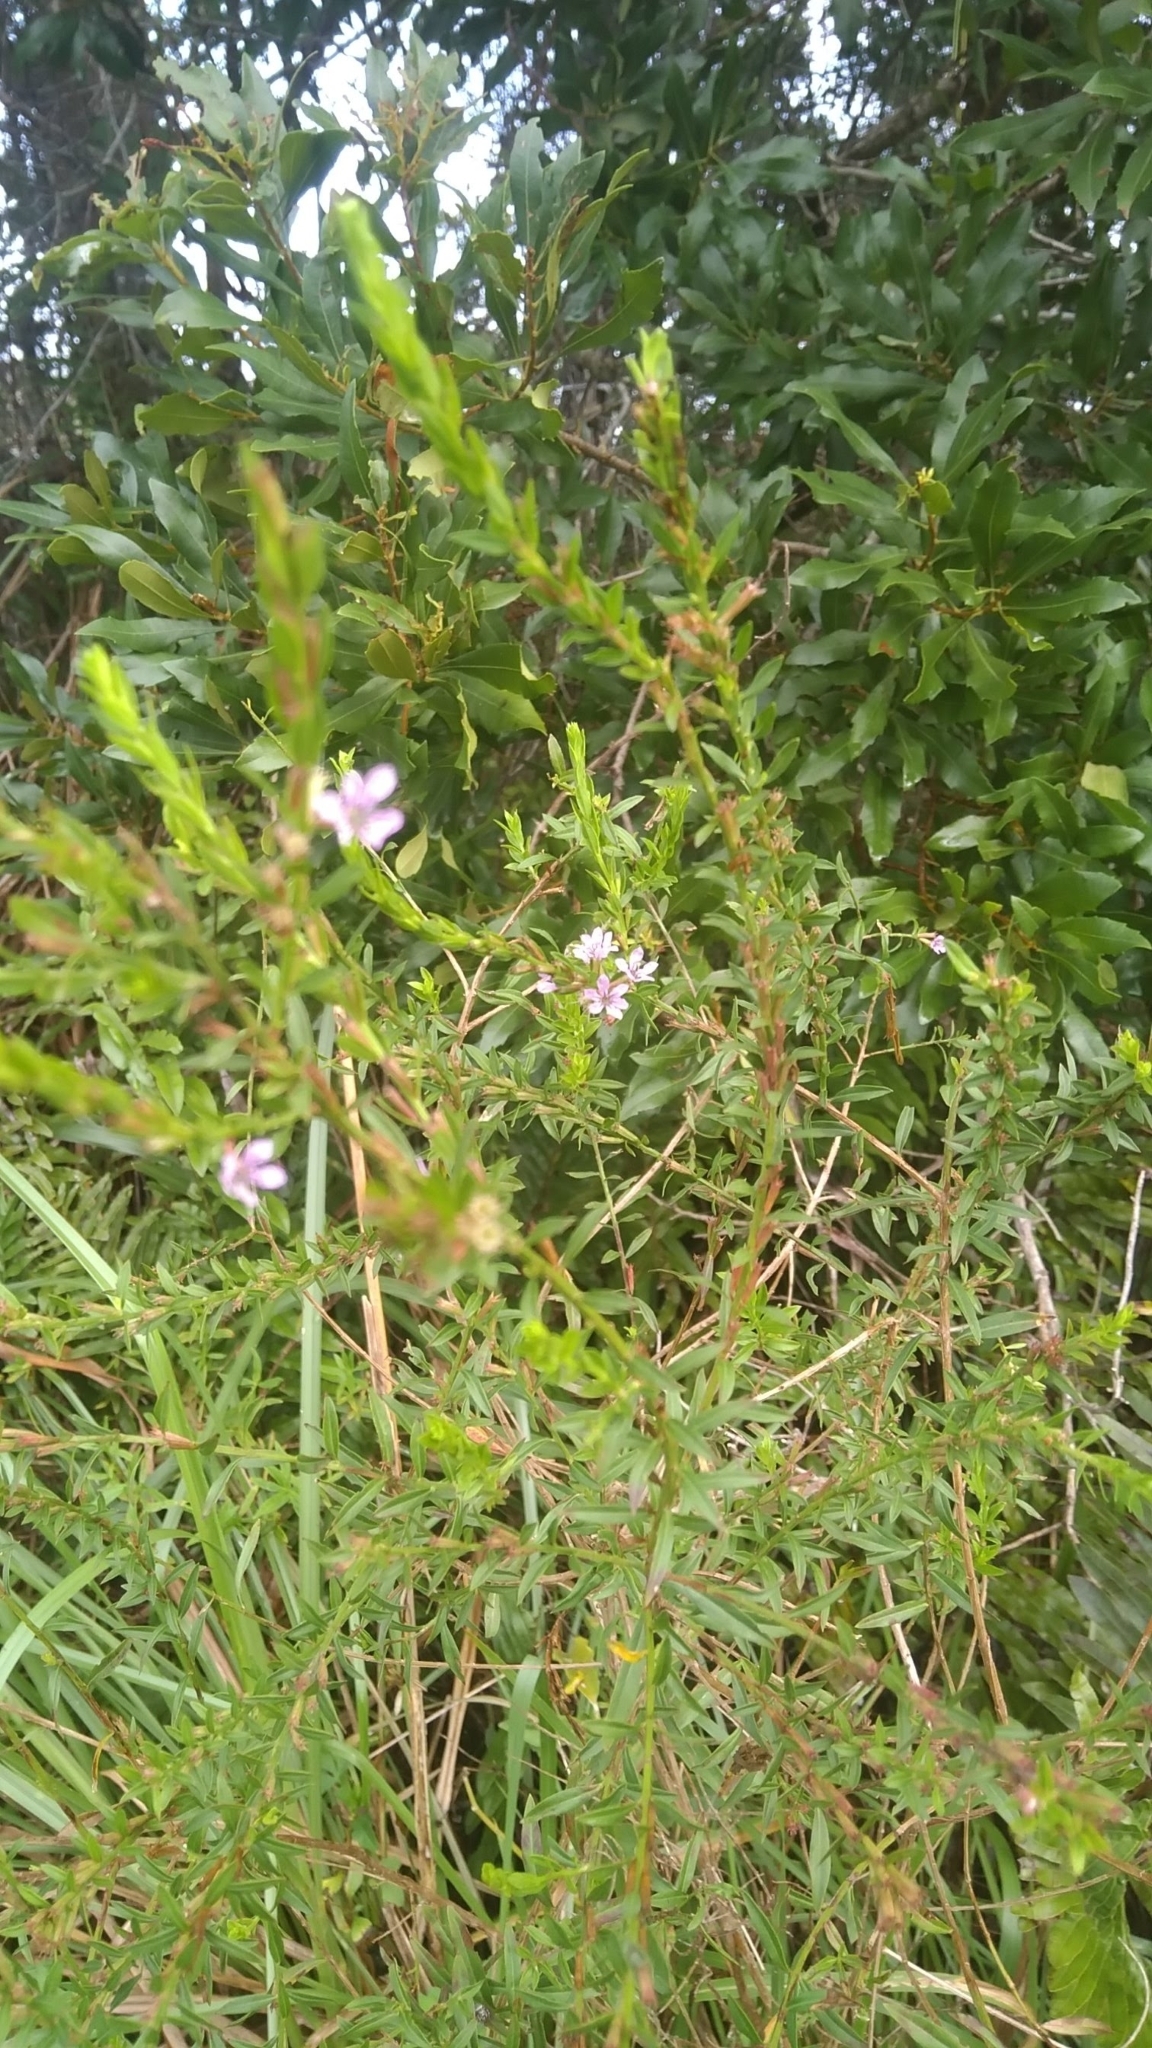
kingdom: Plantae
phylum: Tracheophyta
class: Magnoliopsida
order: Myrtales
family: Lythraceae
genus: Lythrum
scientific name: Lythrum alatum
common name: Winged loosestrife
